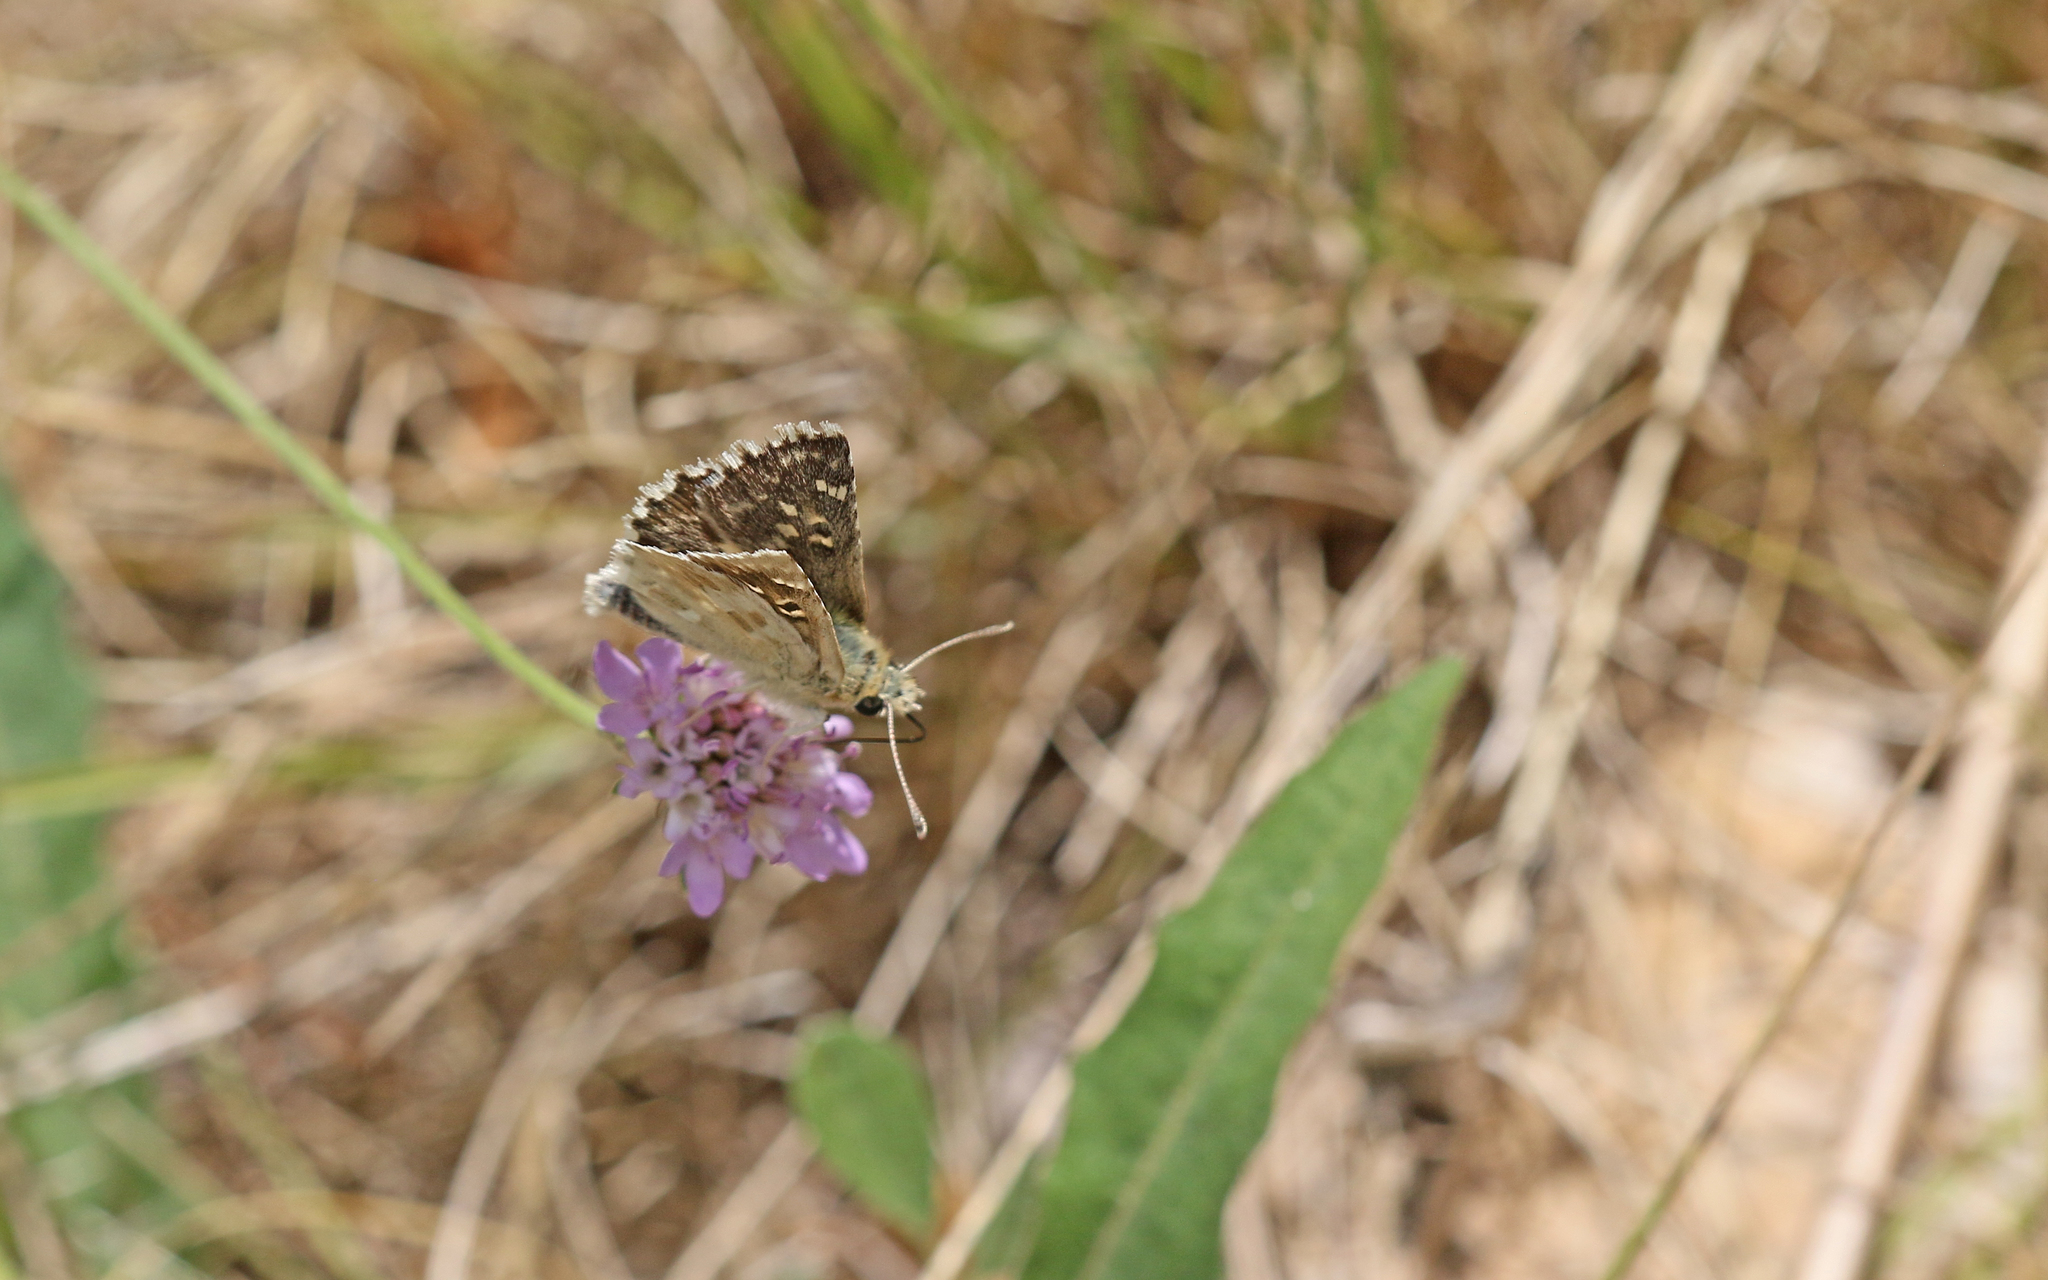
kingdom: Animalia
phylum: Arthropoda
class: Insecta
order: Lepidoptera
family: Hesperiidae
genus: Syrichtus
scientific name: Syrichtus Muschampia proto
